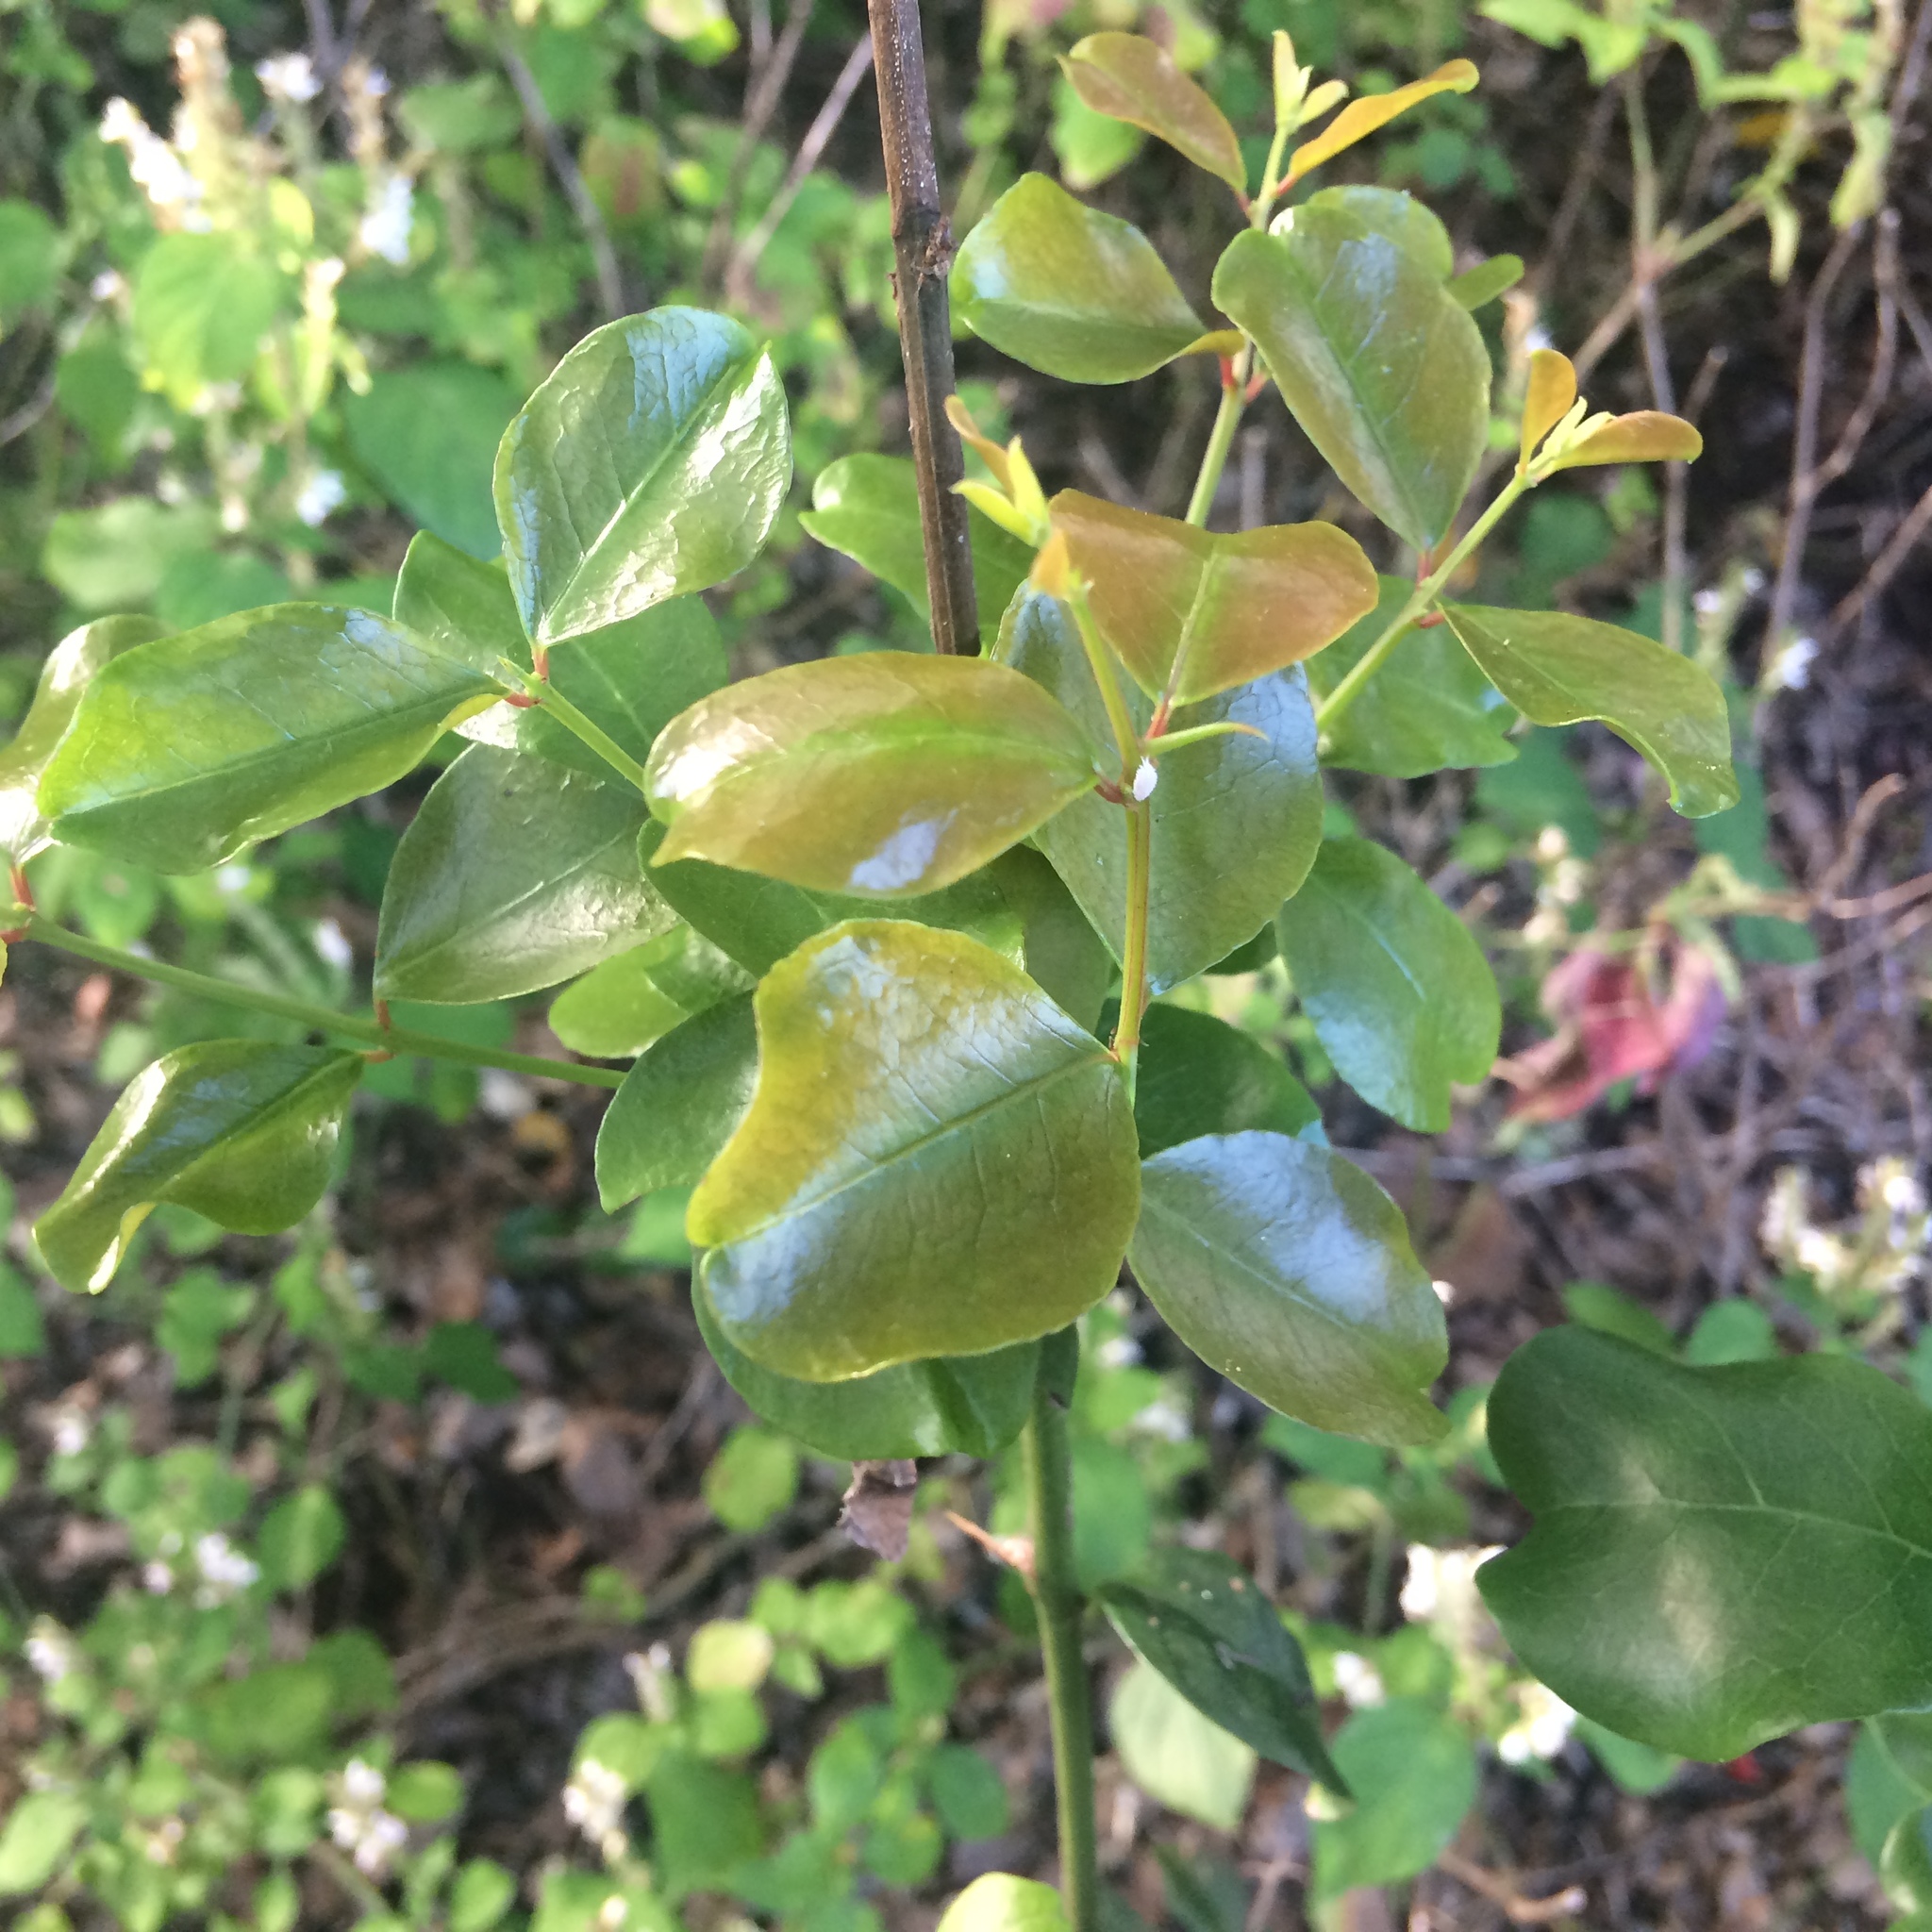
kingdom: Plantae
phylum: Tracheophyta
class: Magnoliopsida
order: Rosales
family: Rhamnaceae
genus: Scutia
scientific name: Scutia myrtina
